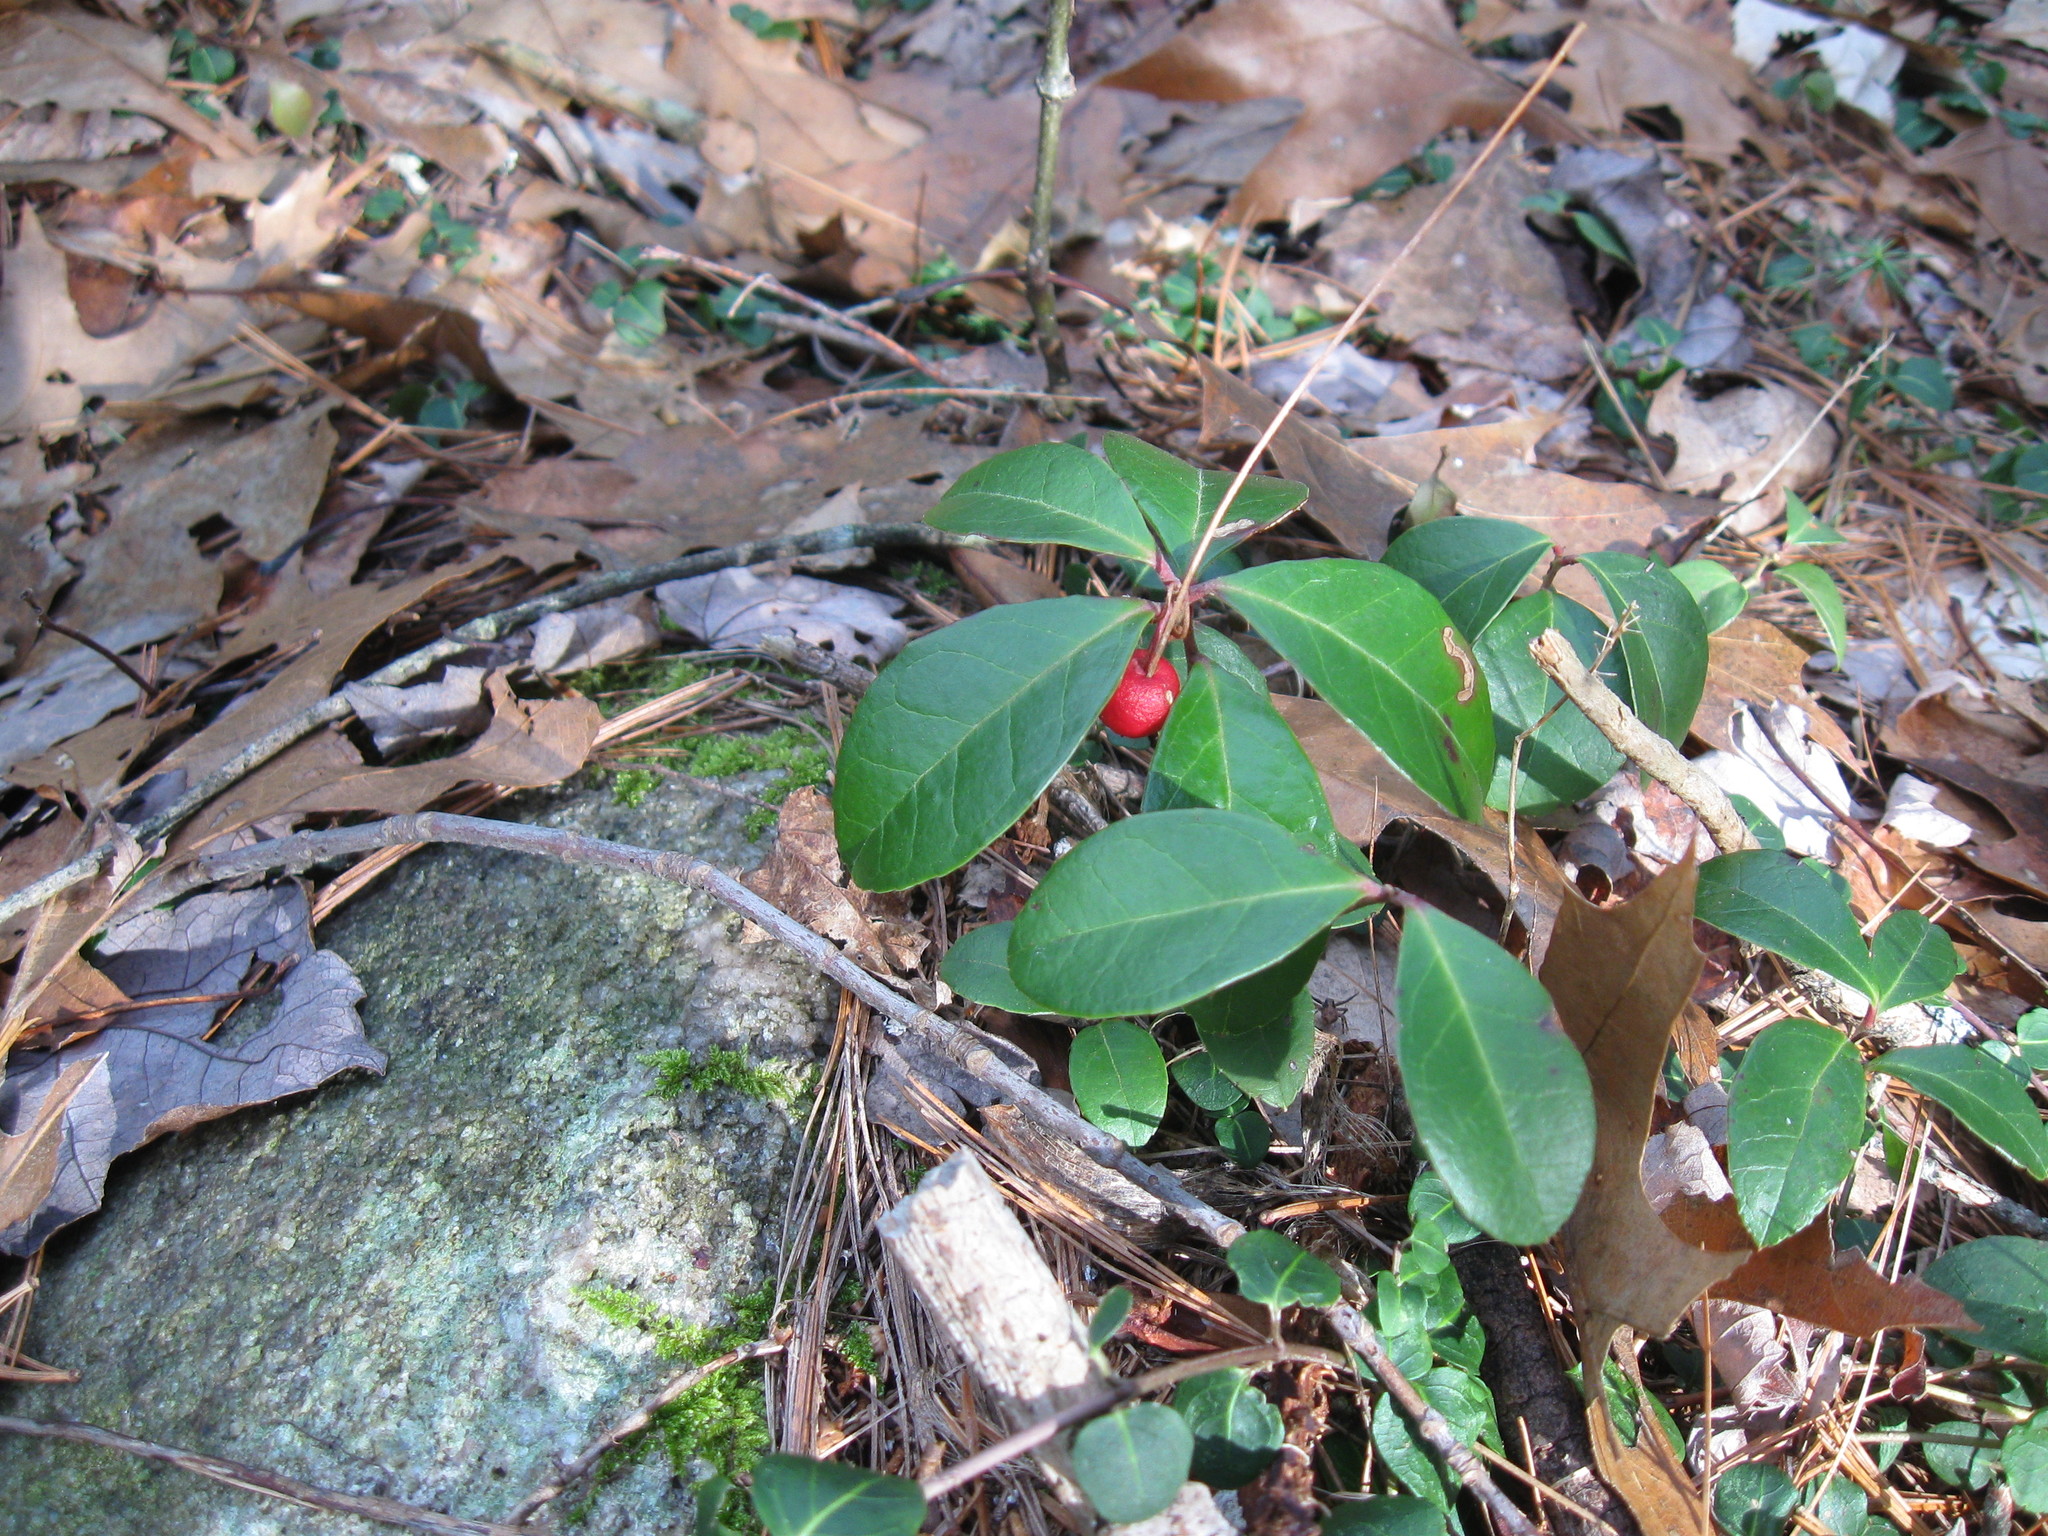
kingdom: Plantae
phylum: Tracheophyta
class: Magnoliopsida
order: Ericales
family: Ericaceae
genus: Gaultheria
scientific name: Gaultheria procumbens
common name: Checkerberry
